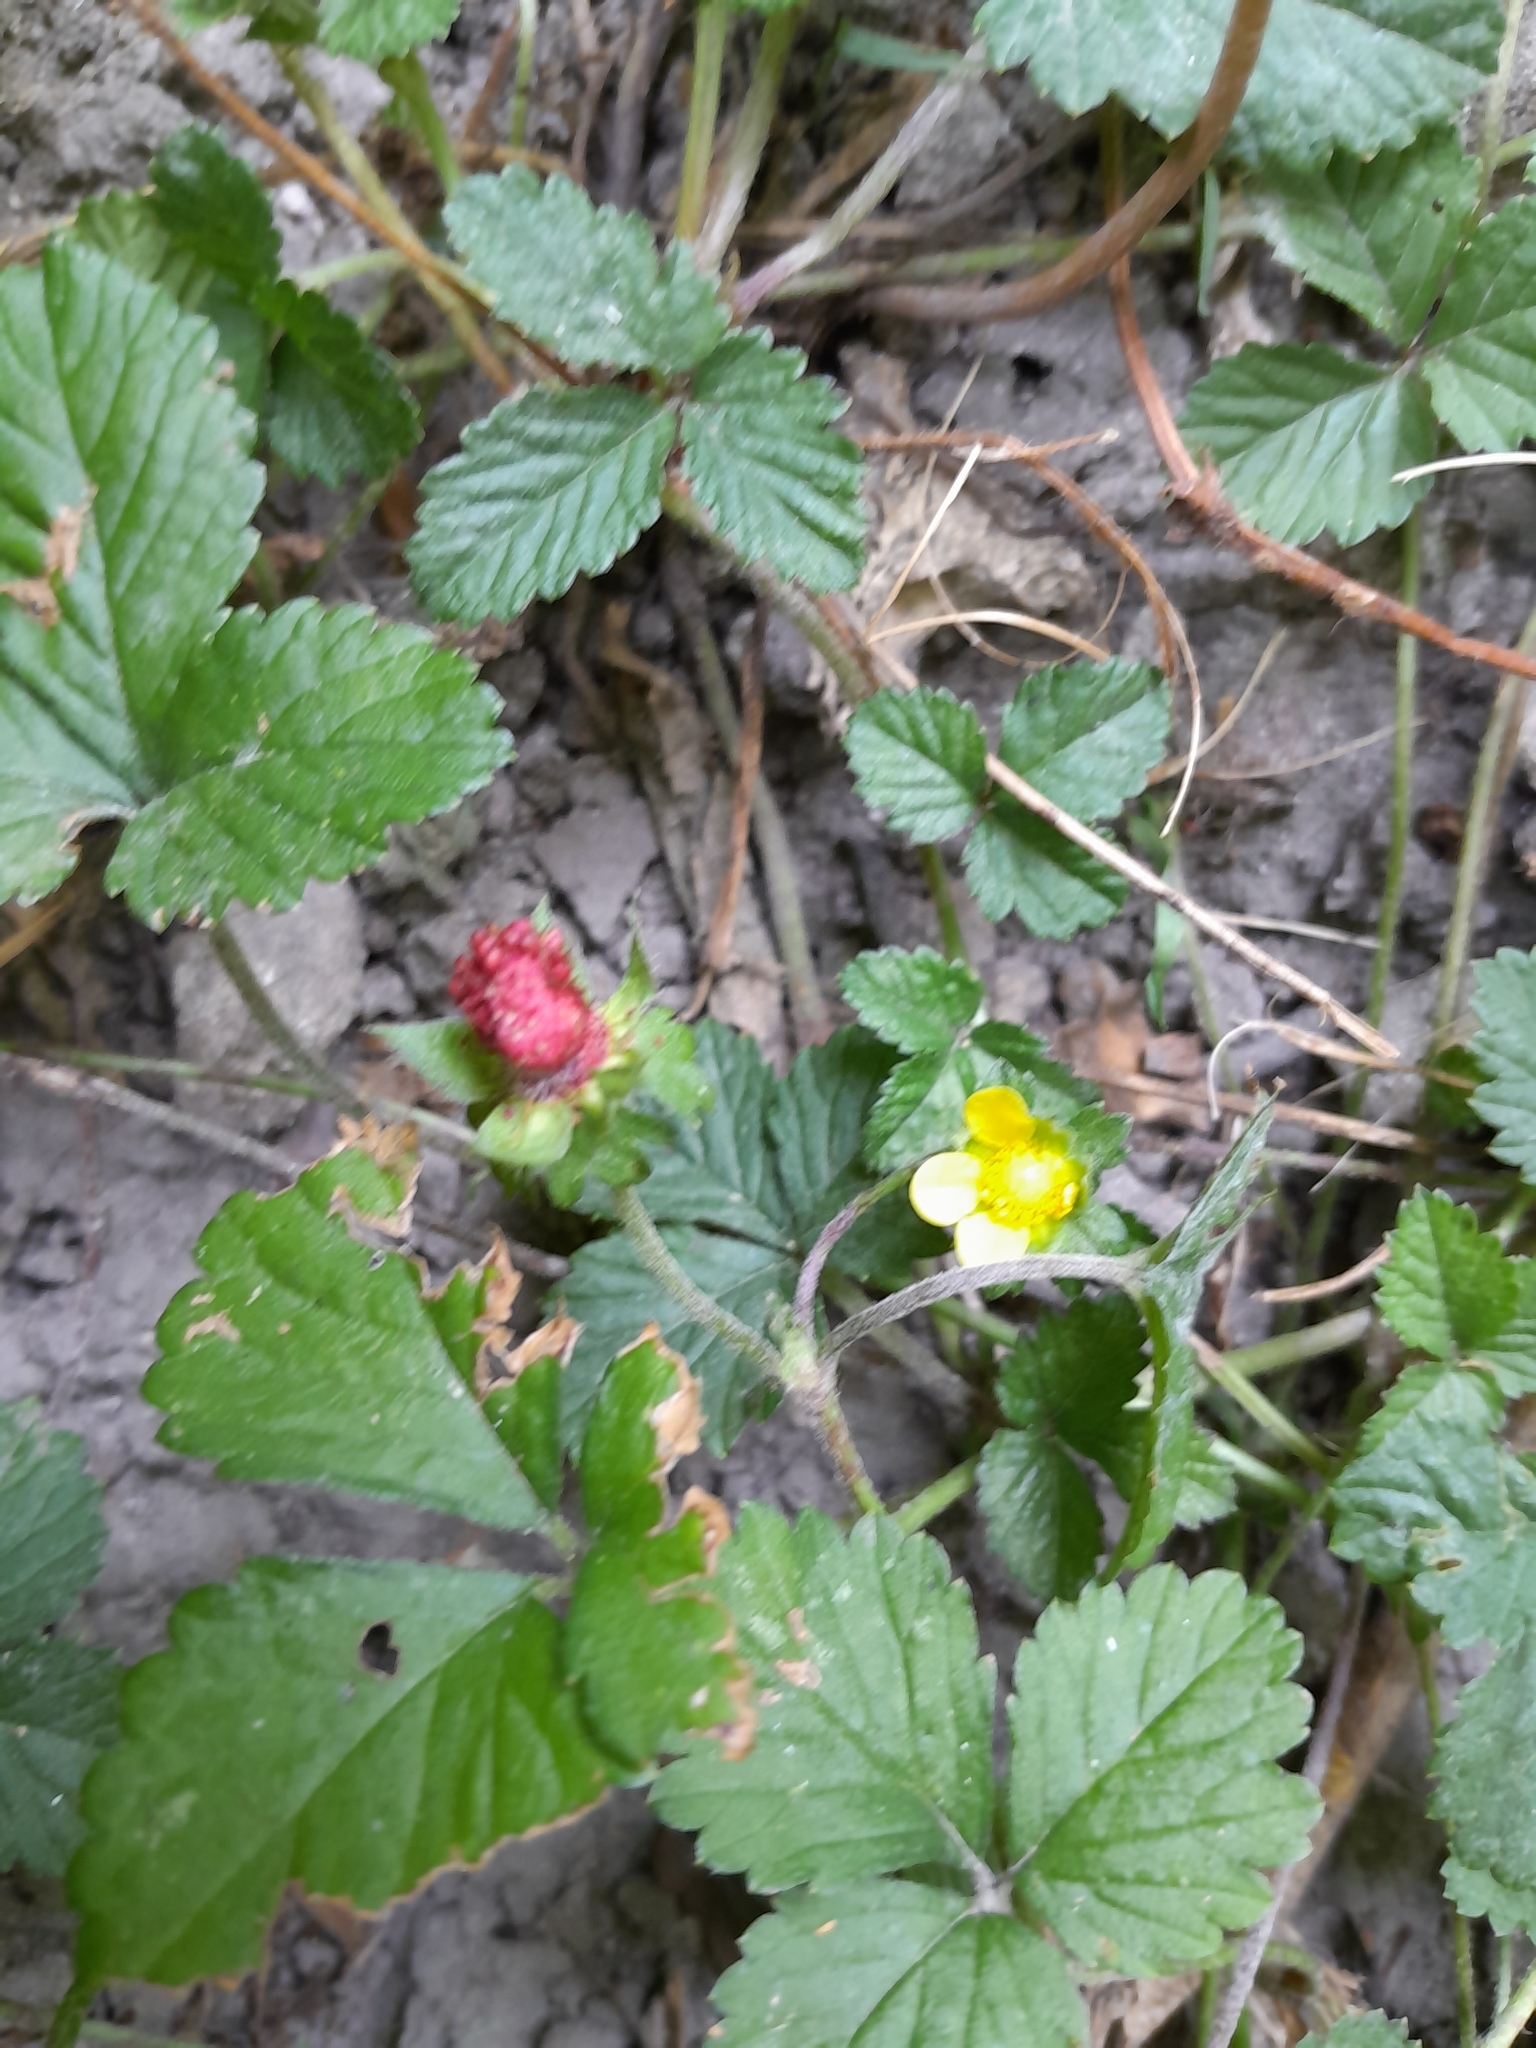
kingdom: Plantae
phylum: Tracheophyta
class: Magnoliopsida
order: Rosales
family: Rosaceae
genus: Potentilla
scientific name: Potentilla indica
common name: Yellow-flowered strawberry
